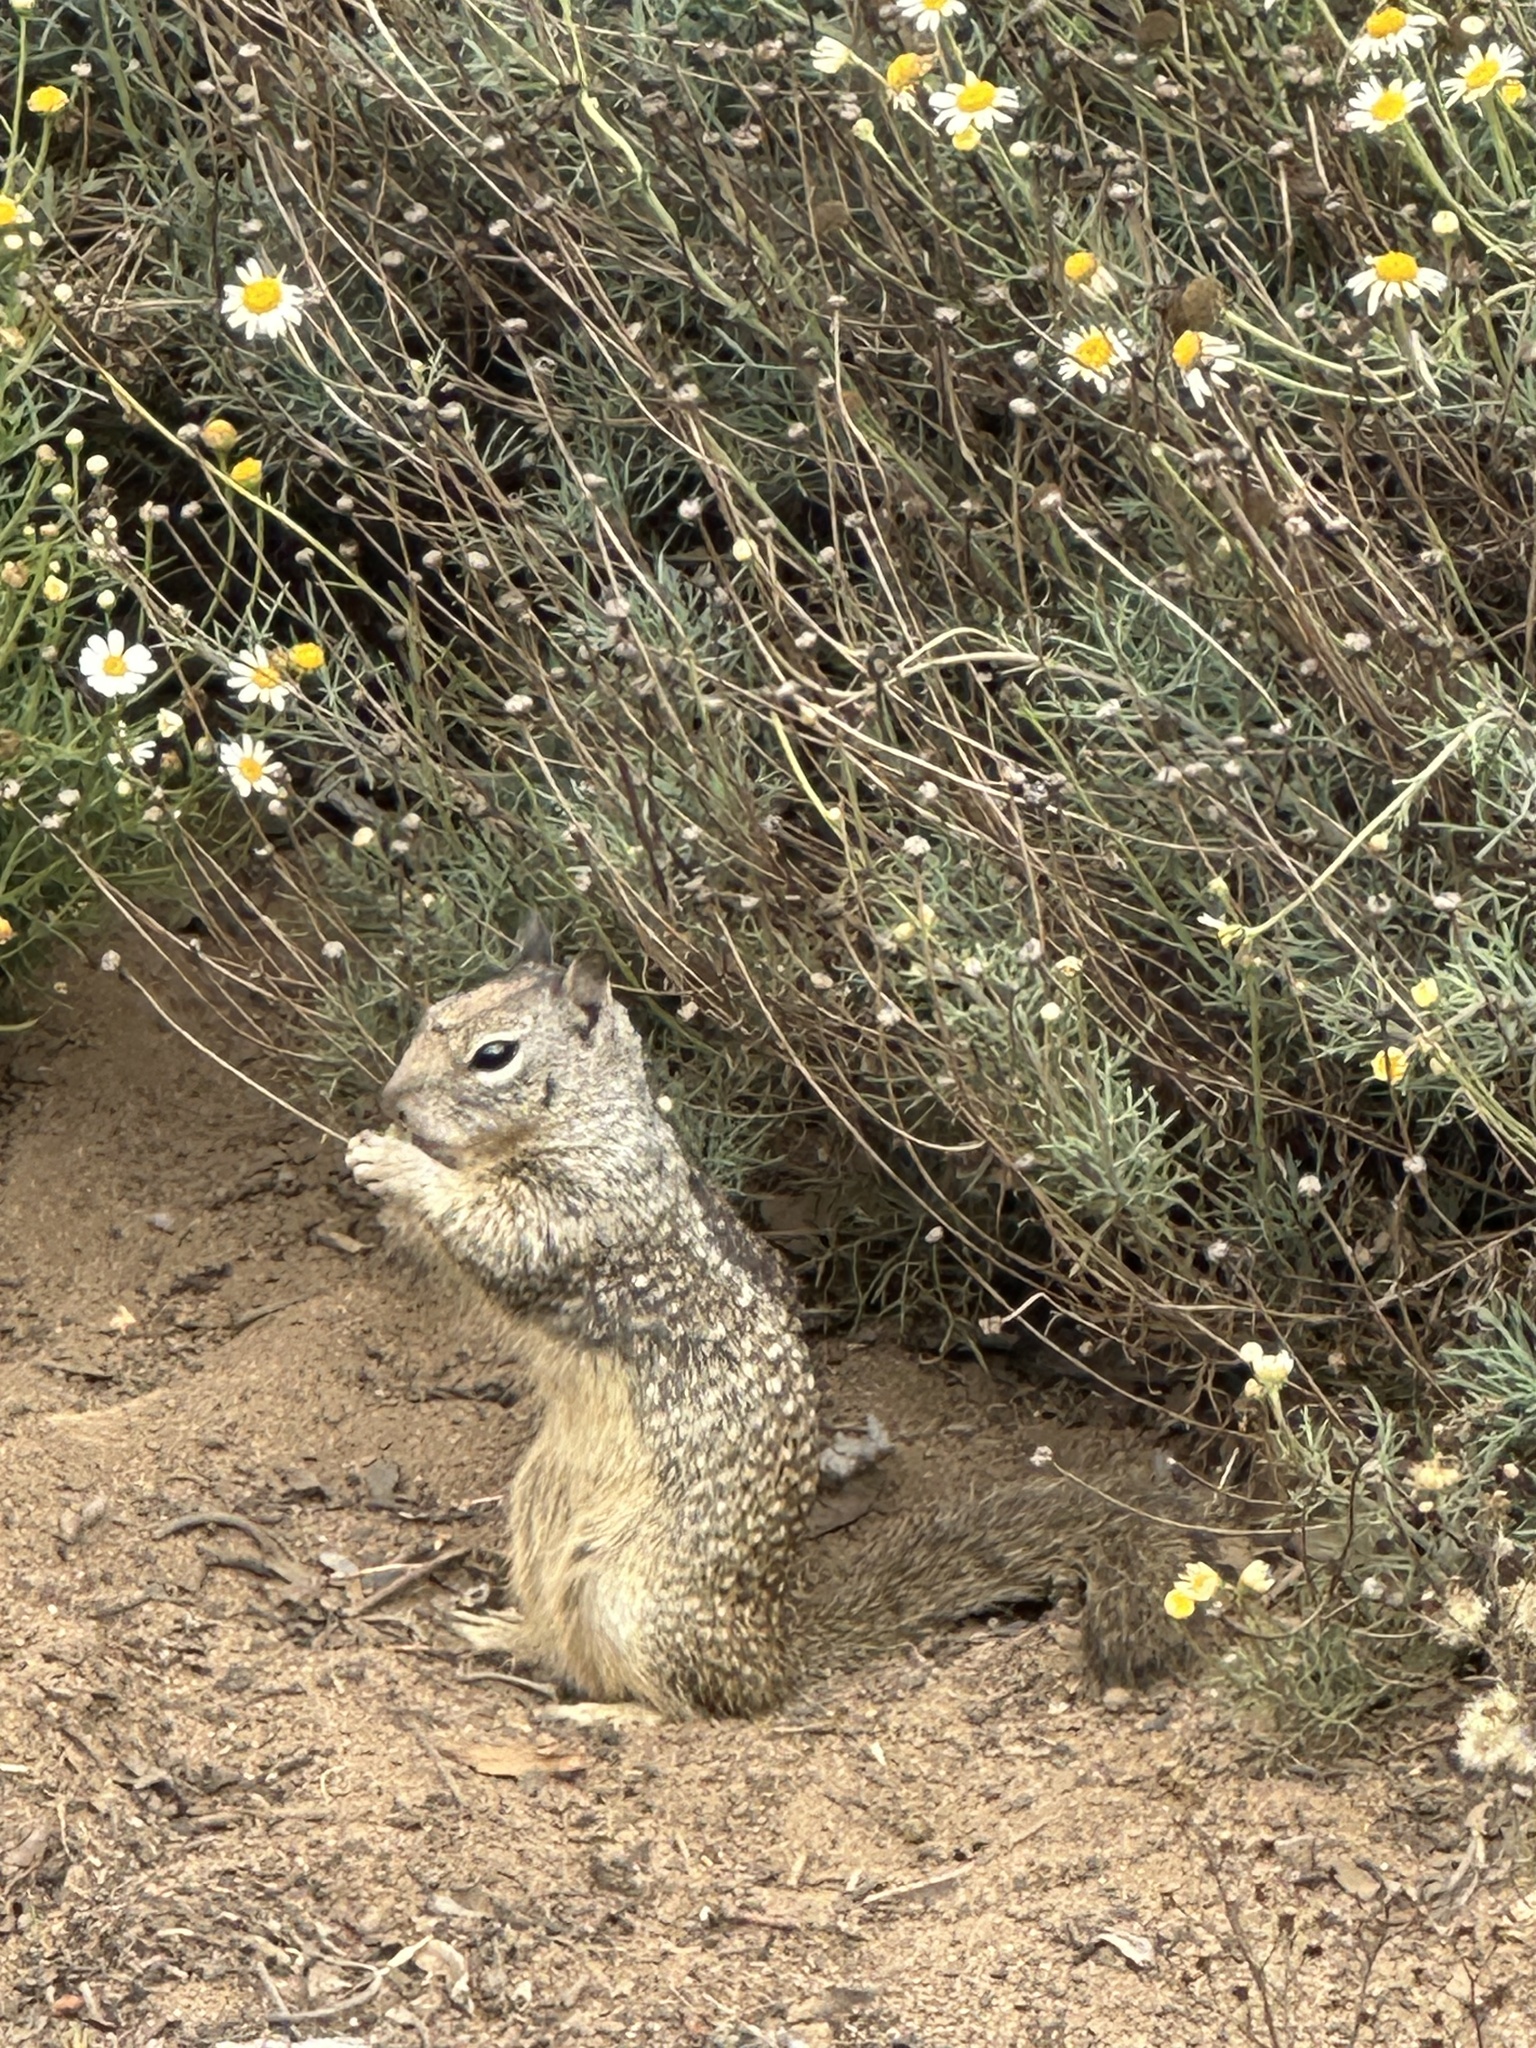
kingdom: Animalia
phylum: Chordata
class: Mammalia
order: Rodentia
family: Sciuridae
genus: Otospermophilus
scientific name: Otospermophilus beecheyi
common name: California ground squirrel
